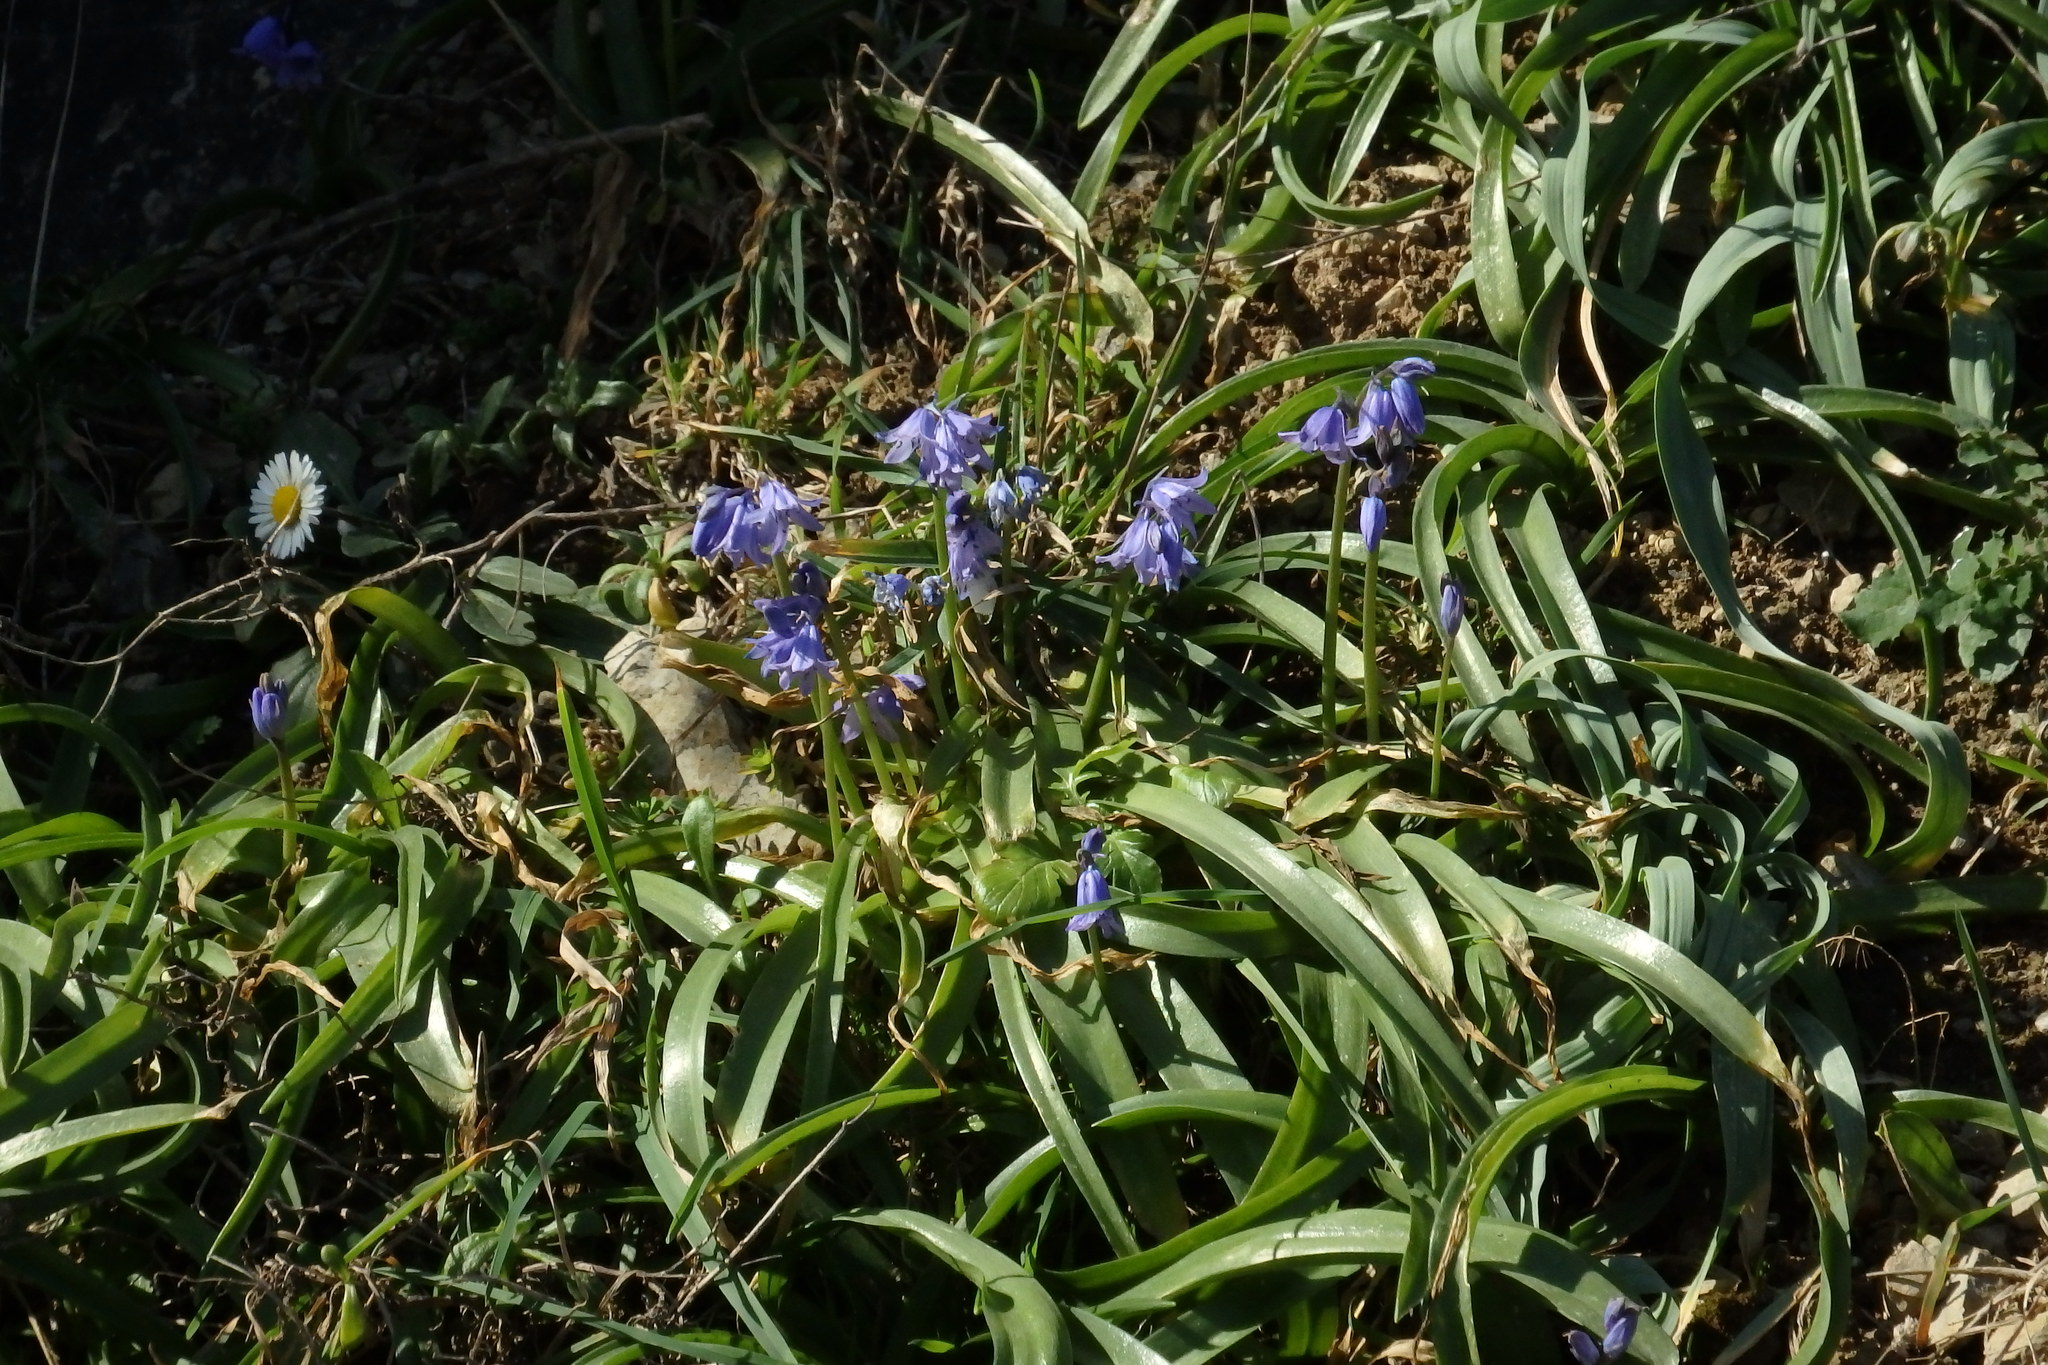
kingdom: Plantae
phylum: Tracheophyta
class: Liliopsida
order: Asparagales
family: Asparagaceae
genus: Hyacinthoides
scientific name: Hyacinthoides hispanica
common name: Spanish bluebell
